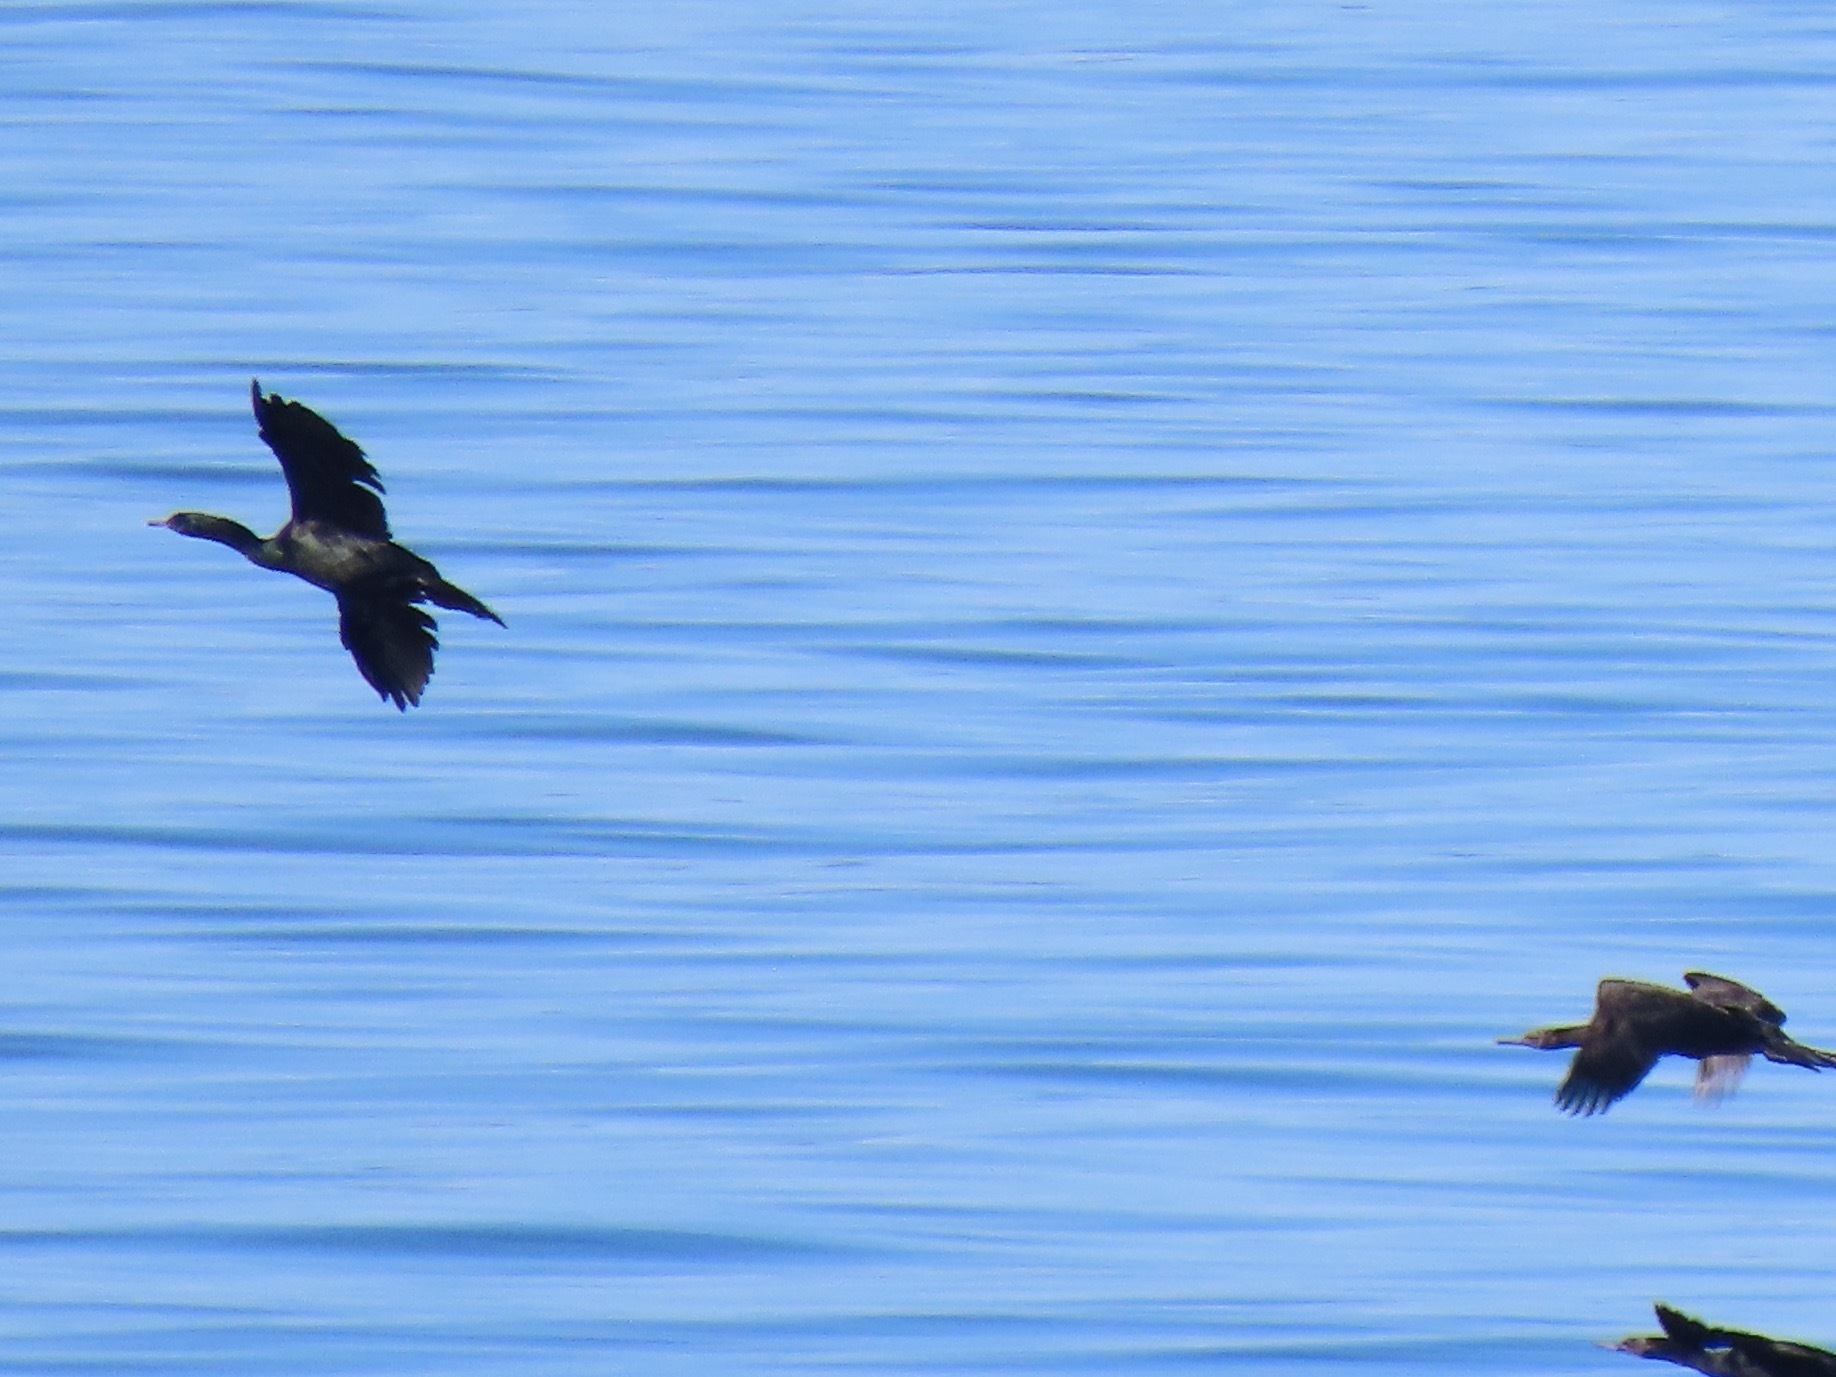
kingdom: Animalia
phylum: Chordata
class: Aves
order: Suliformes
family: Phalacrocoracidae
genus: Phalacrocorax
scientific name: Phalacrocorax pelagicus
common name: Pelagic cormorant
